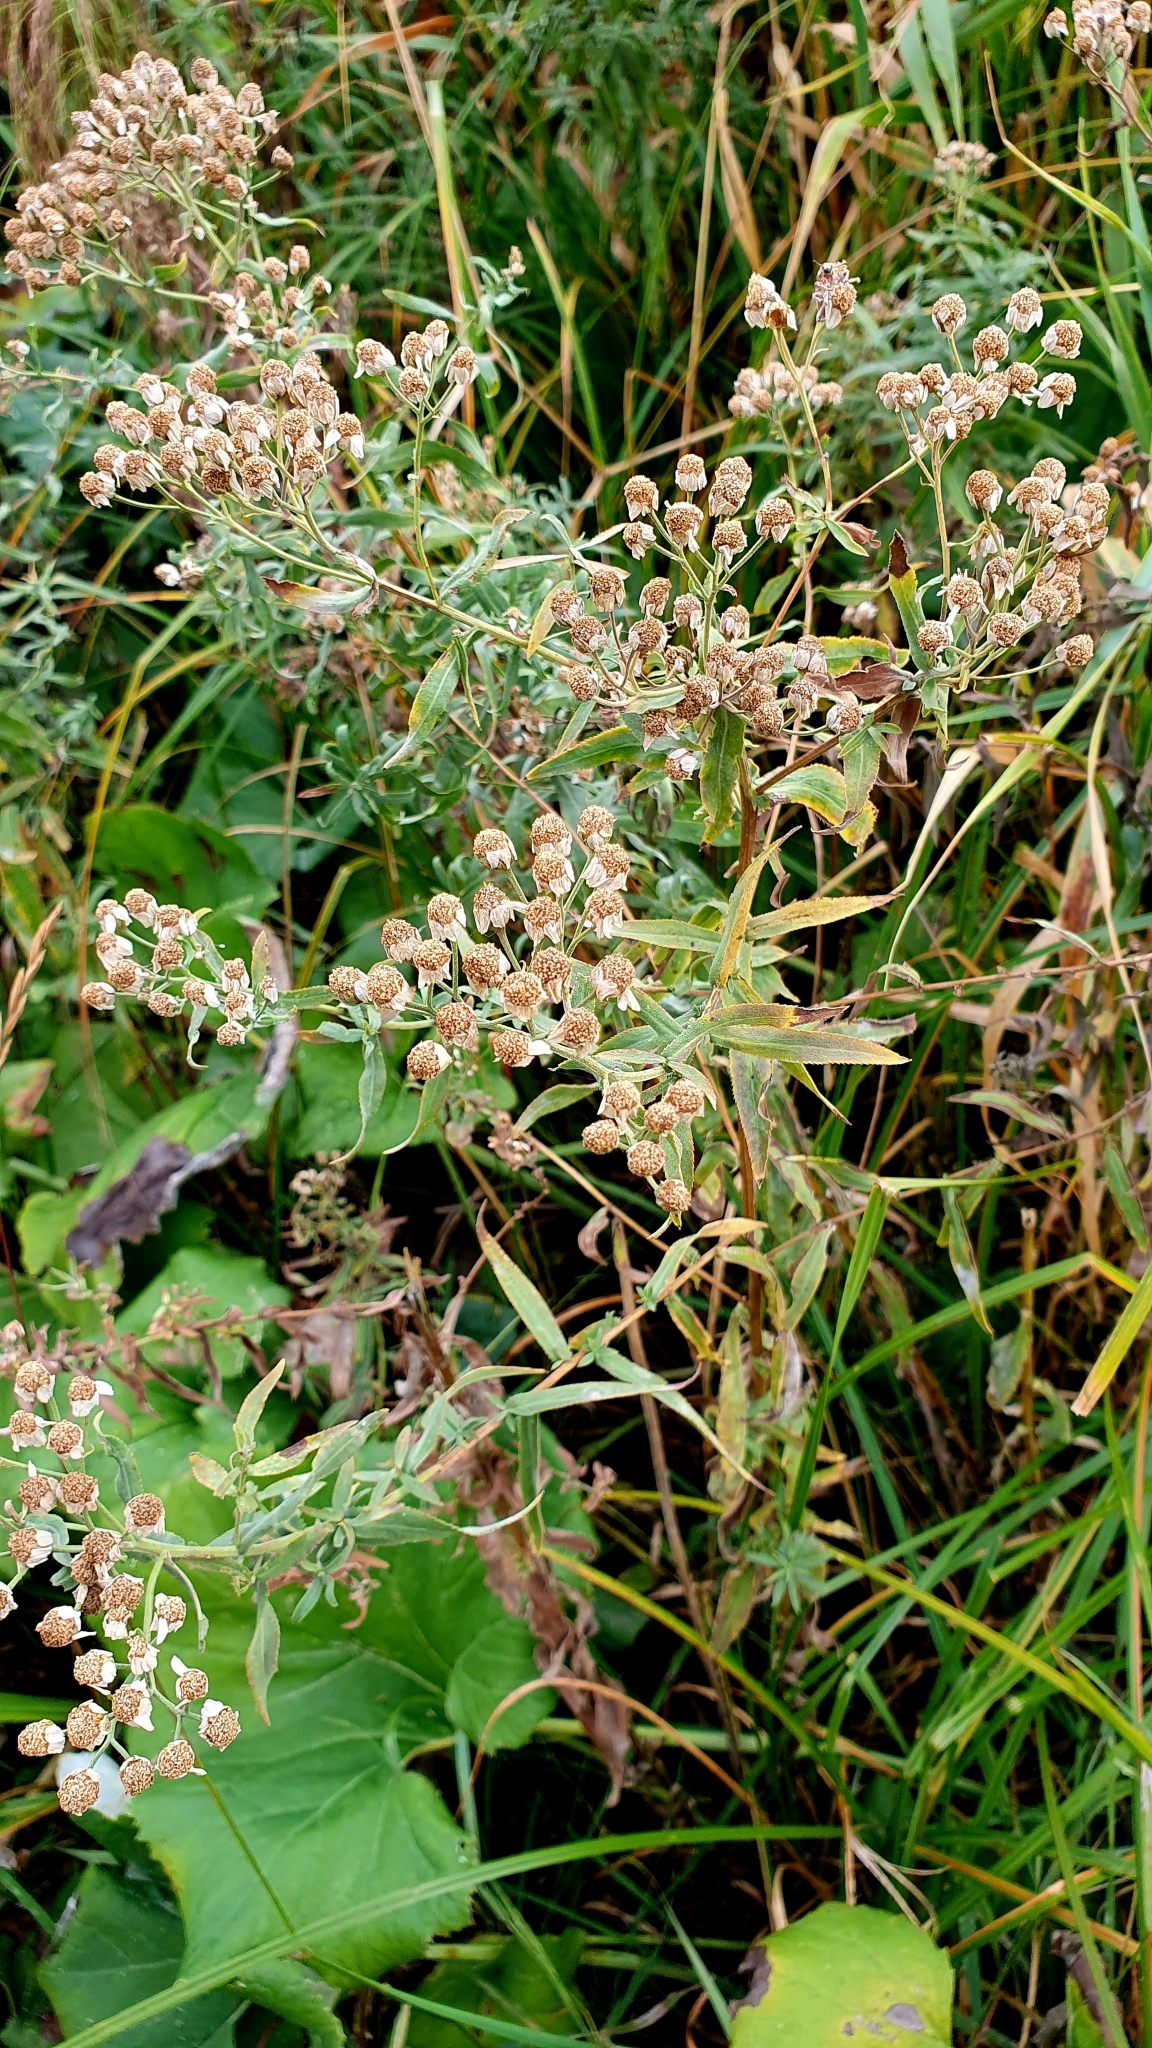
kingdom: Plantae
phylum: Tracheophyta
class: Magnoliopsida
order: Asterales
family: Asteraceae
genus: Achillea
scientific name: Achillea salicifolia
